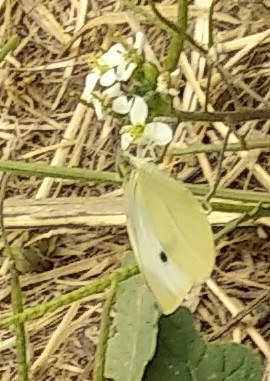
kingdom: Animalia
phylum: Arthropoda
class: Insecta
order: Lepidoptera
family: Pieridae
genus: Pieris
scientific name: Pieris rapae
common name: Small white
